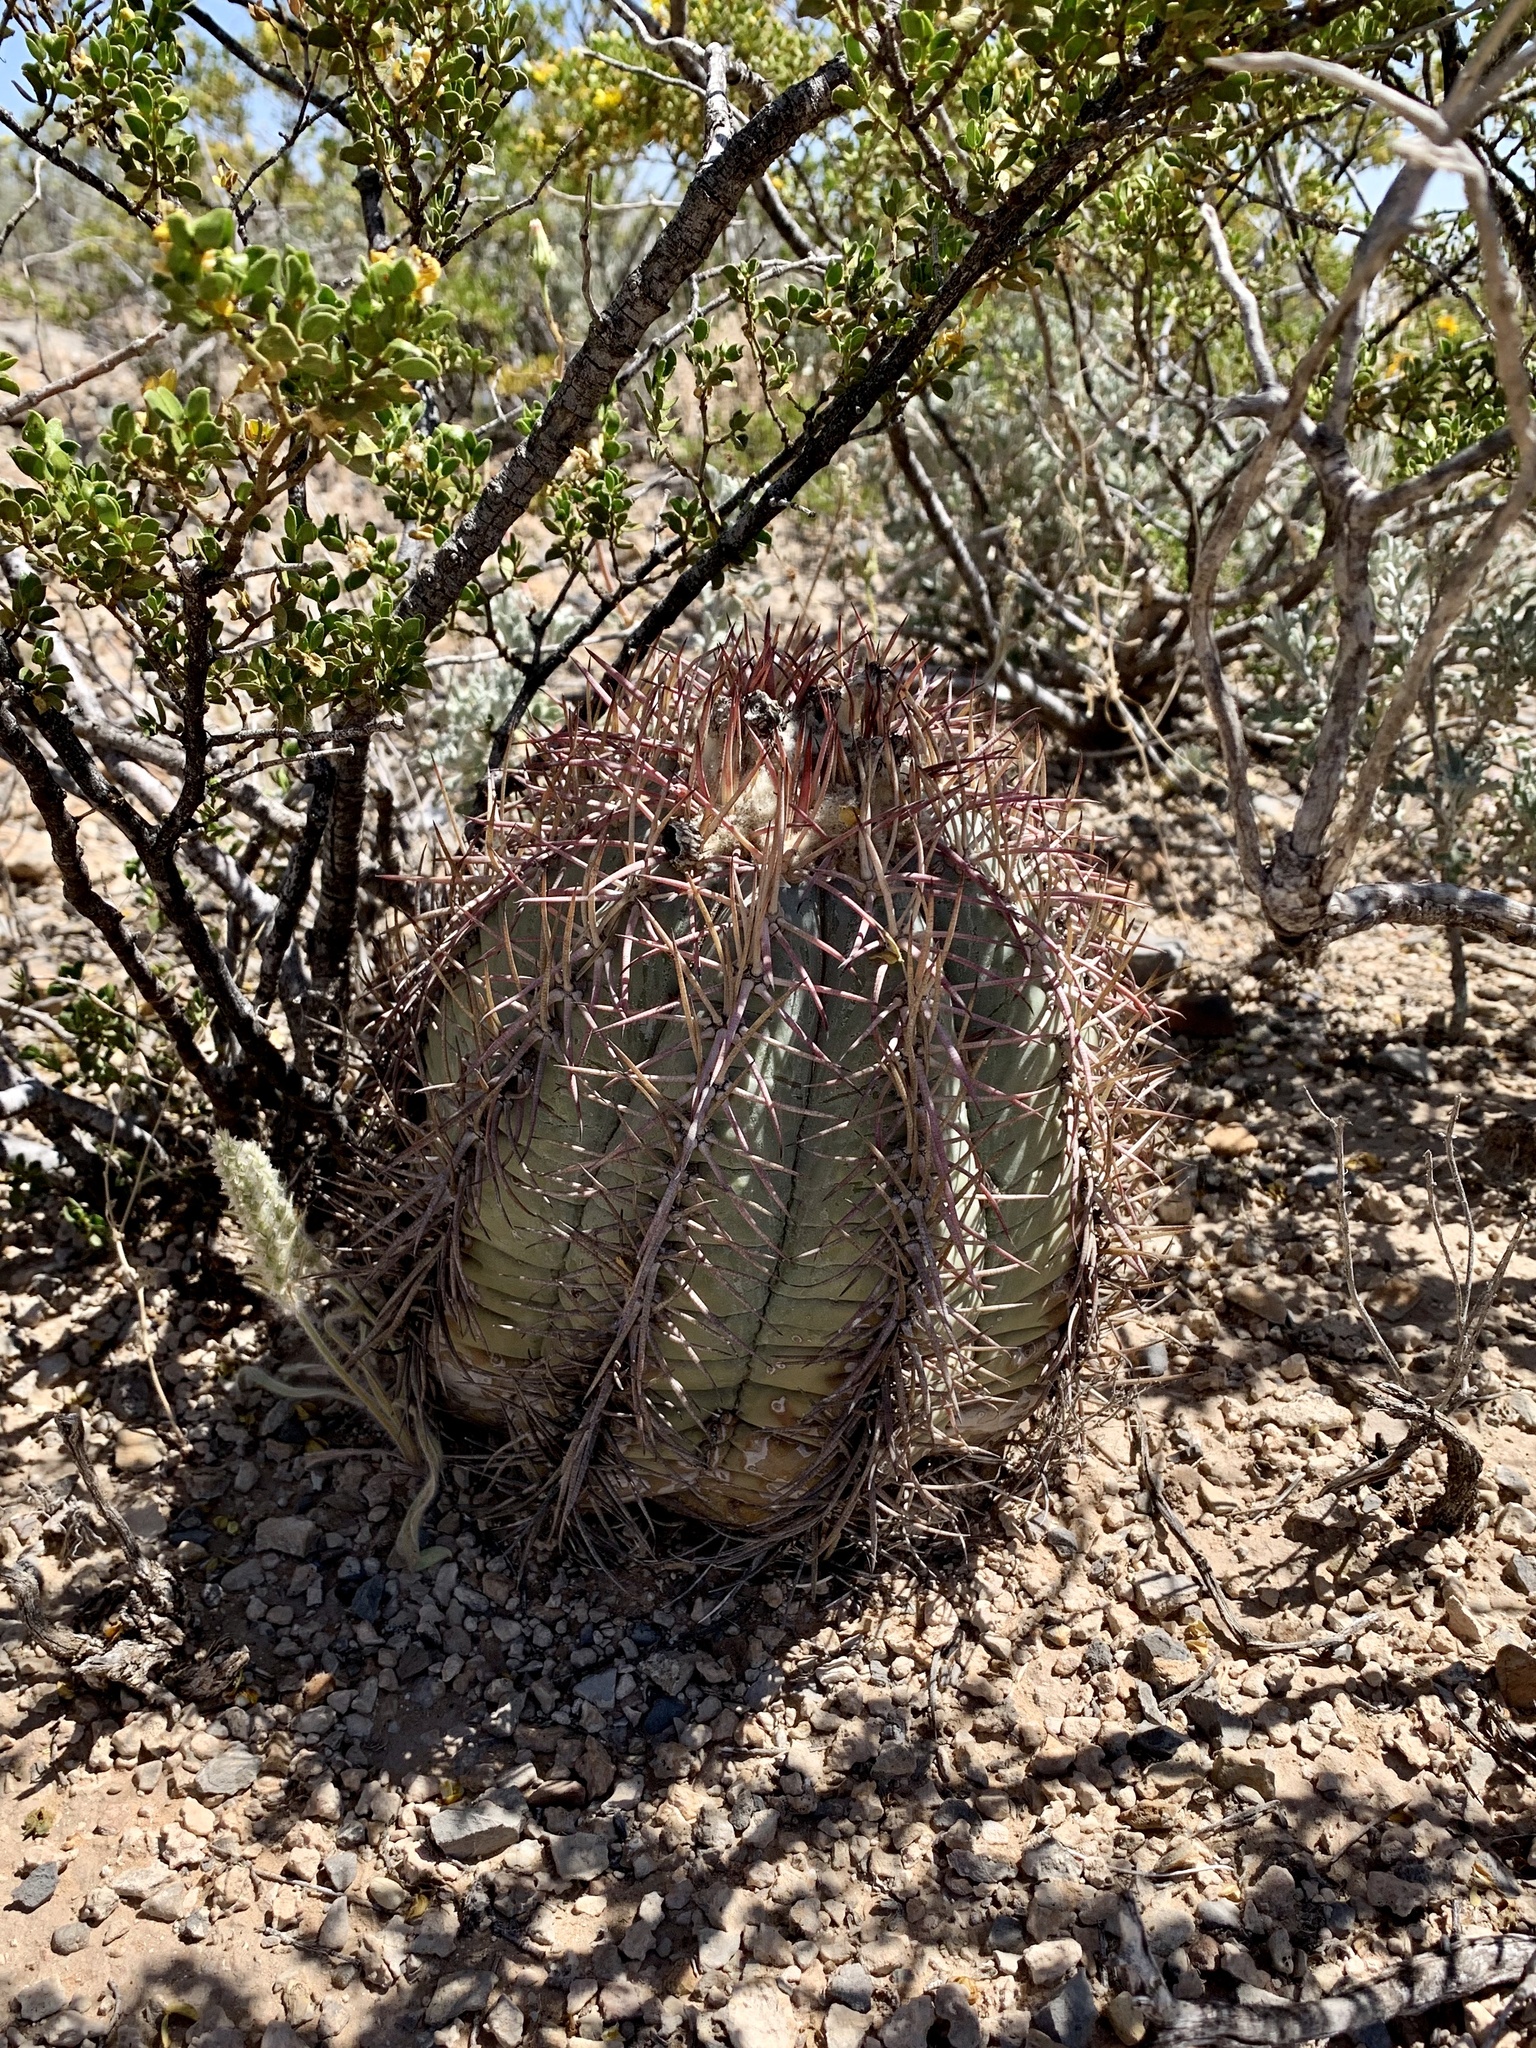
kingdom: Plantae
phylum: Tracheophyta
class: Magnoliopsida
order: Caryophyllales
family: Cactaceae
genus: Echinocactus
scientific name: Echinocactus horizonthalonius
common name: Devilshead
